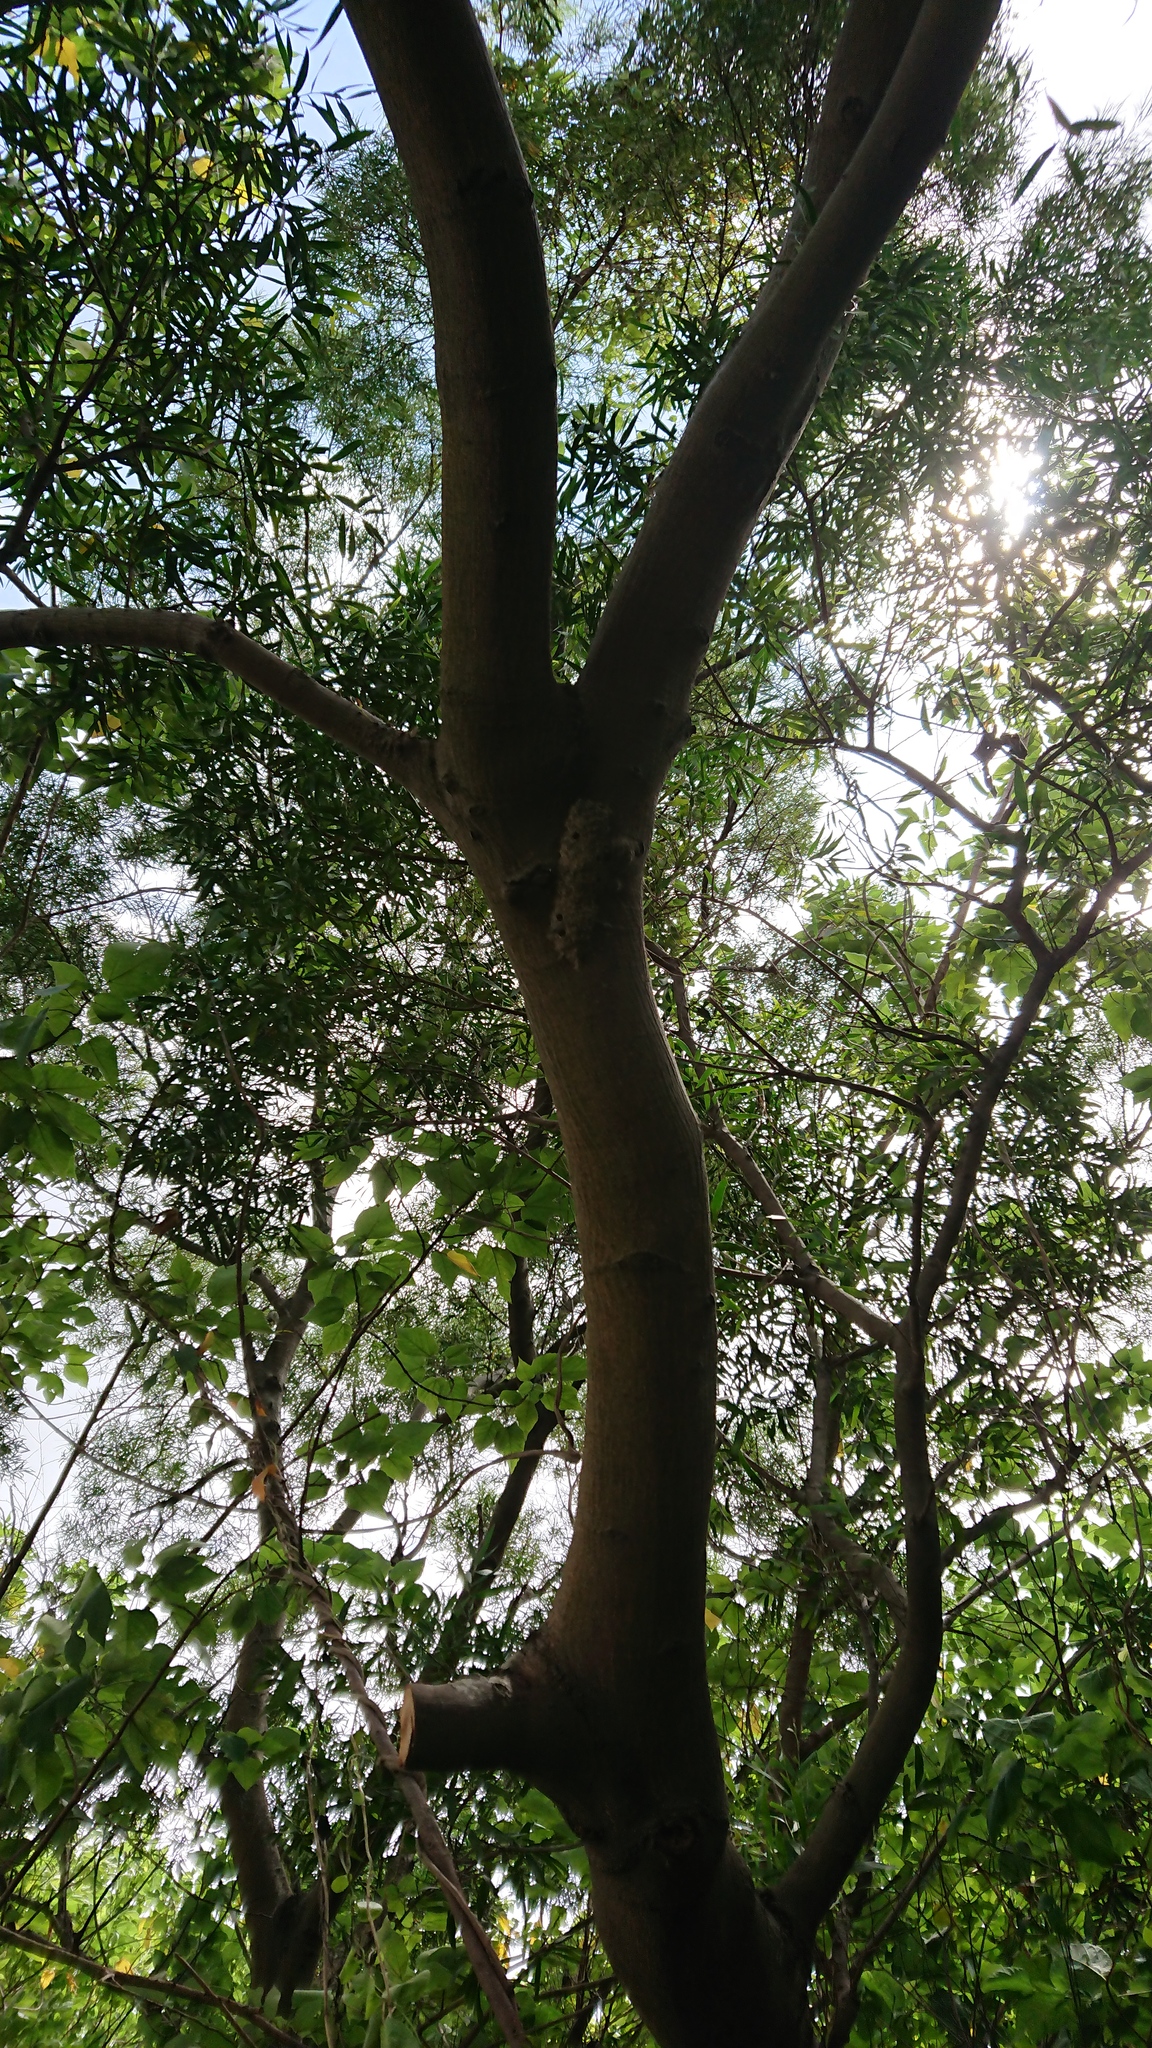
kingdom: Plantae
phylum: Tracheophyta
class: Magnoliopsida
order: Fabales
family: Fabaceae
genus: Acacia
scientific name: Acacia confusa
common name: Formosan koa
